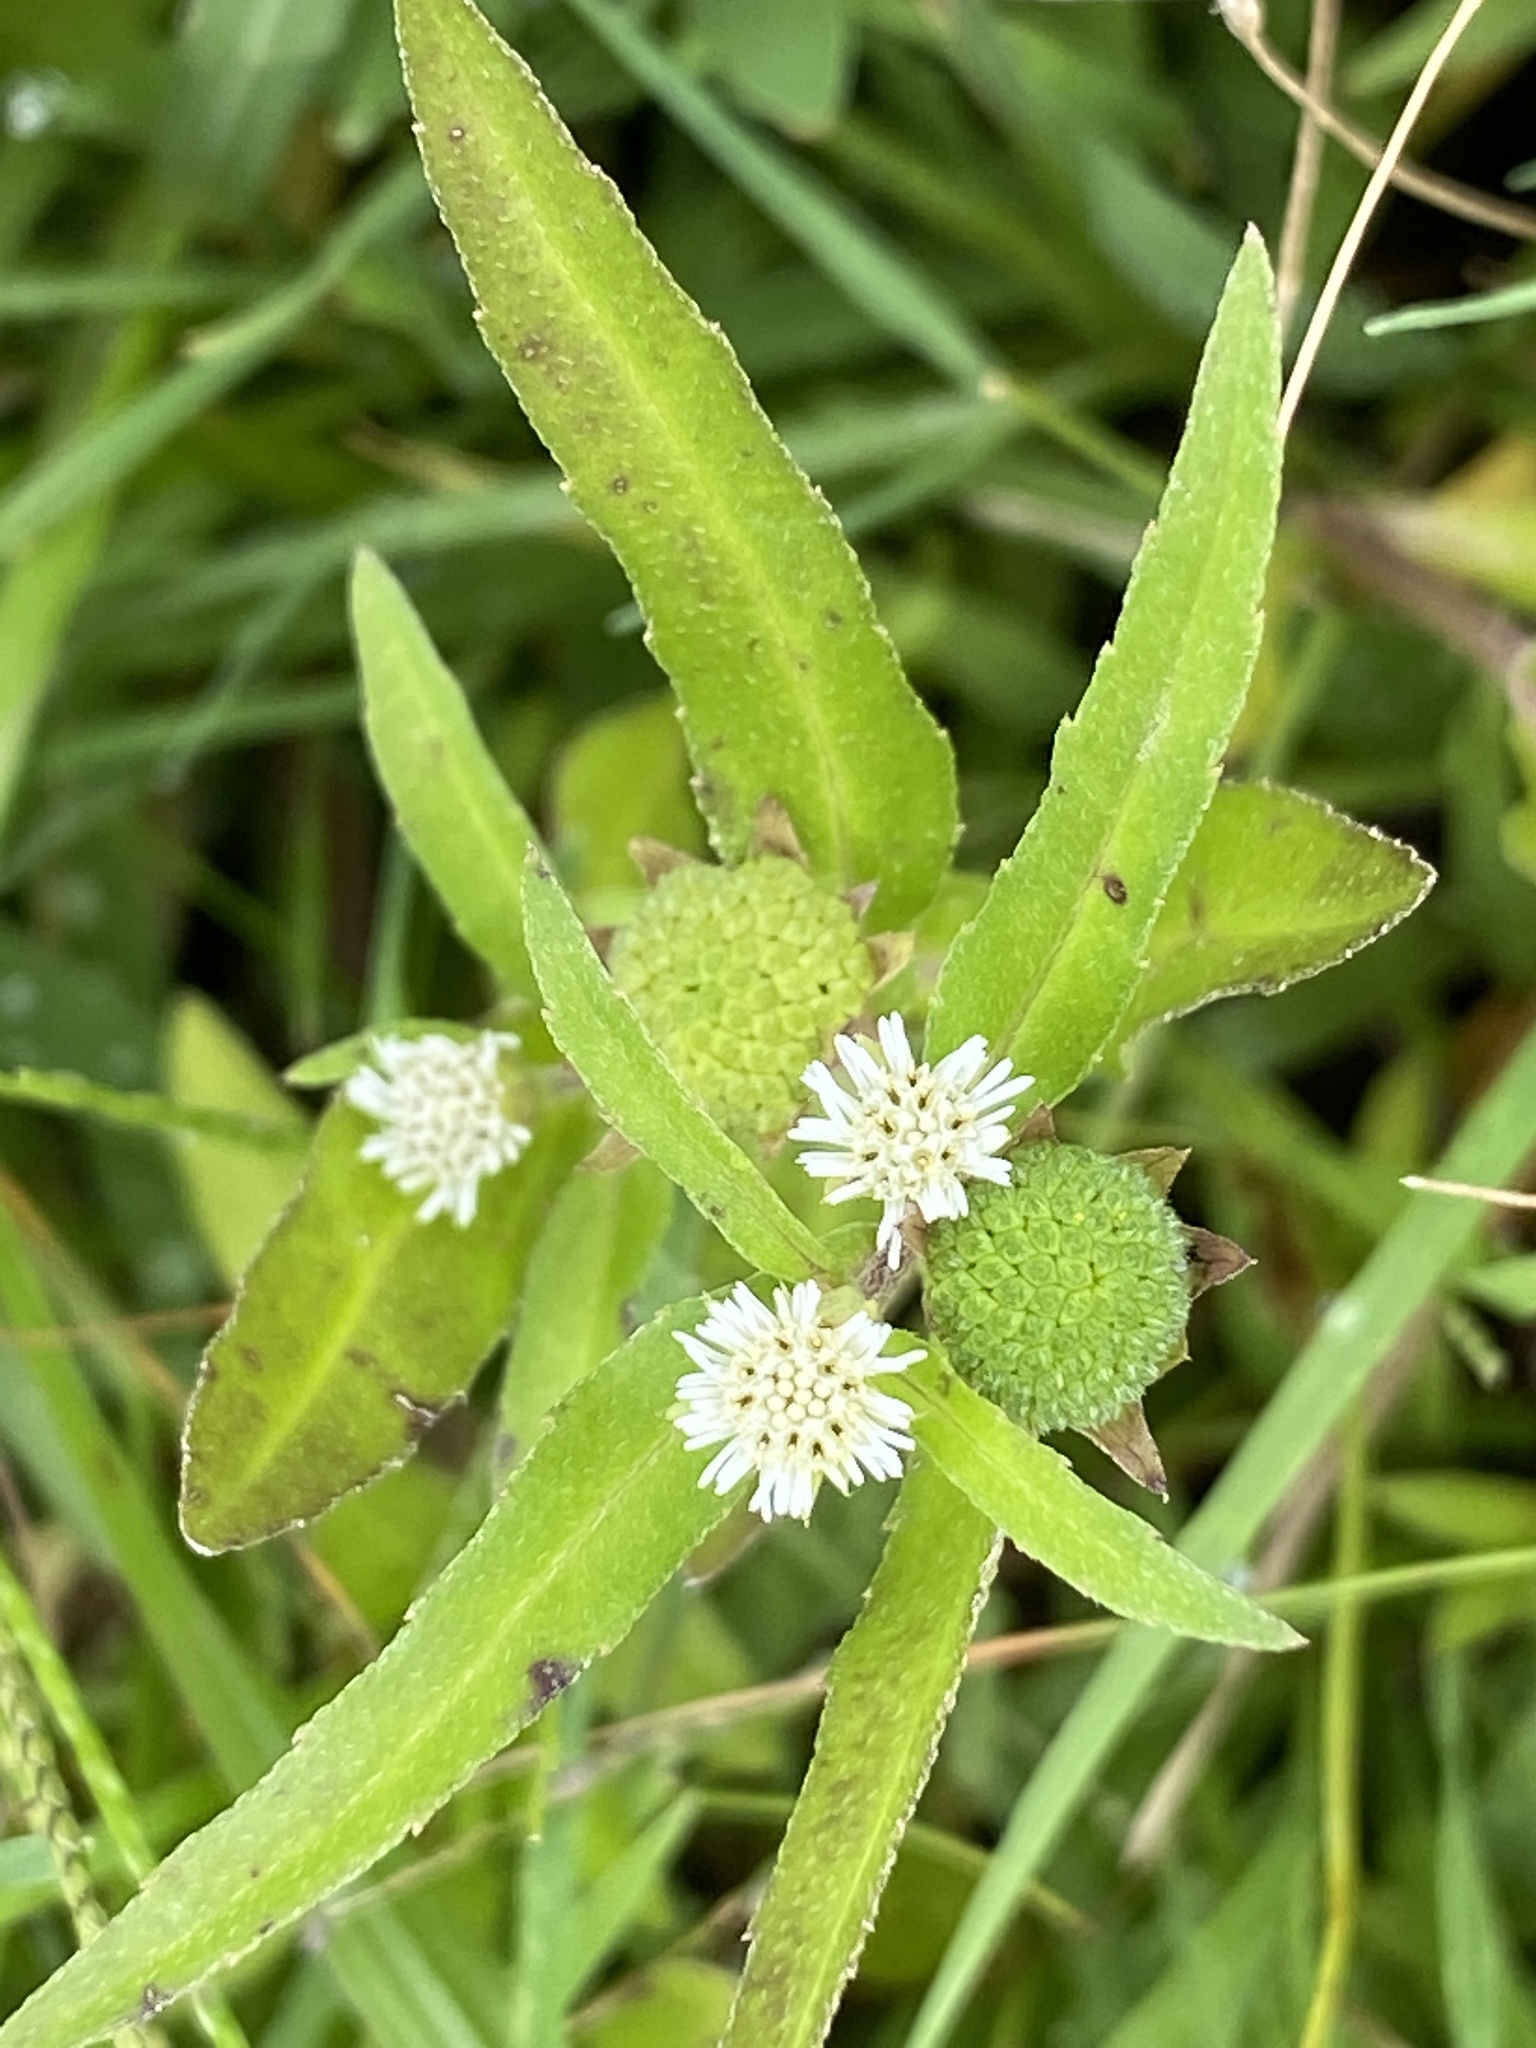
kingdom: Plantae
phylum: Tracheophyta
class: Magnoliopsida
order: Asterales
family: Asteraceae
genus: Eclipta
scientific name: Eclipta prostrata
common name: False daisy
